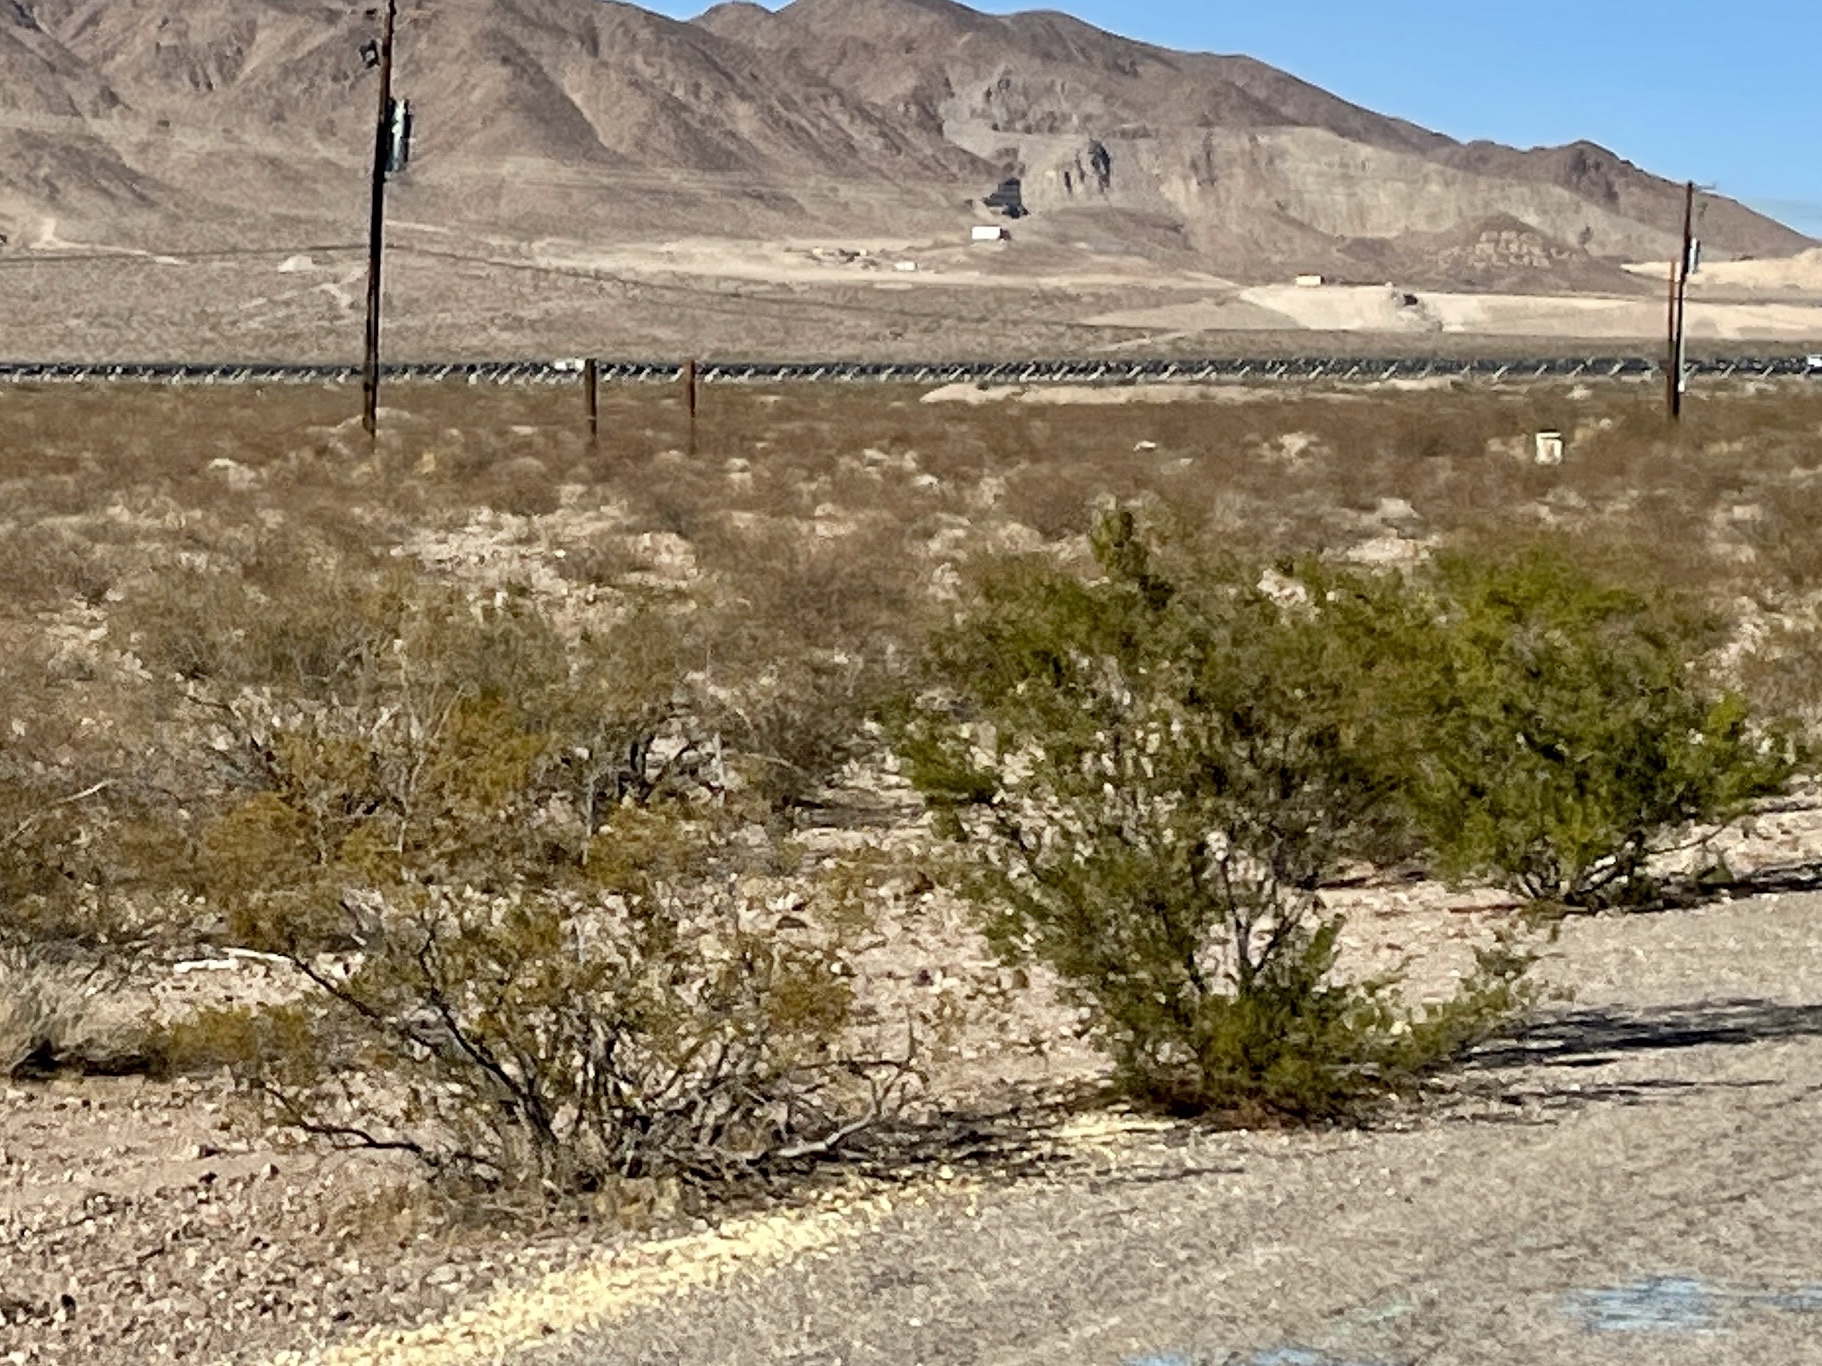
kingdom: Plantae
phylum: Tracheophyta
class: Magnoliopsida
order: Zygophyllales
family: Zygophyllaceae
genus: Larrea
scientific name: Larrea tridentata
